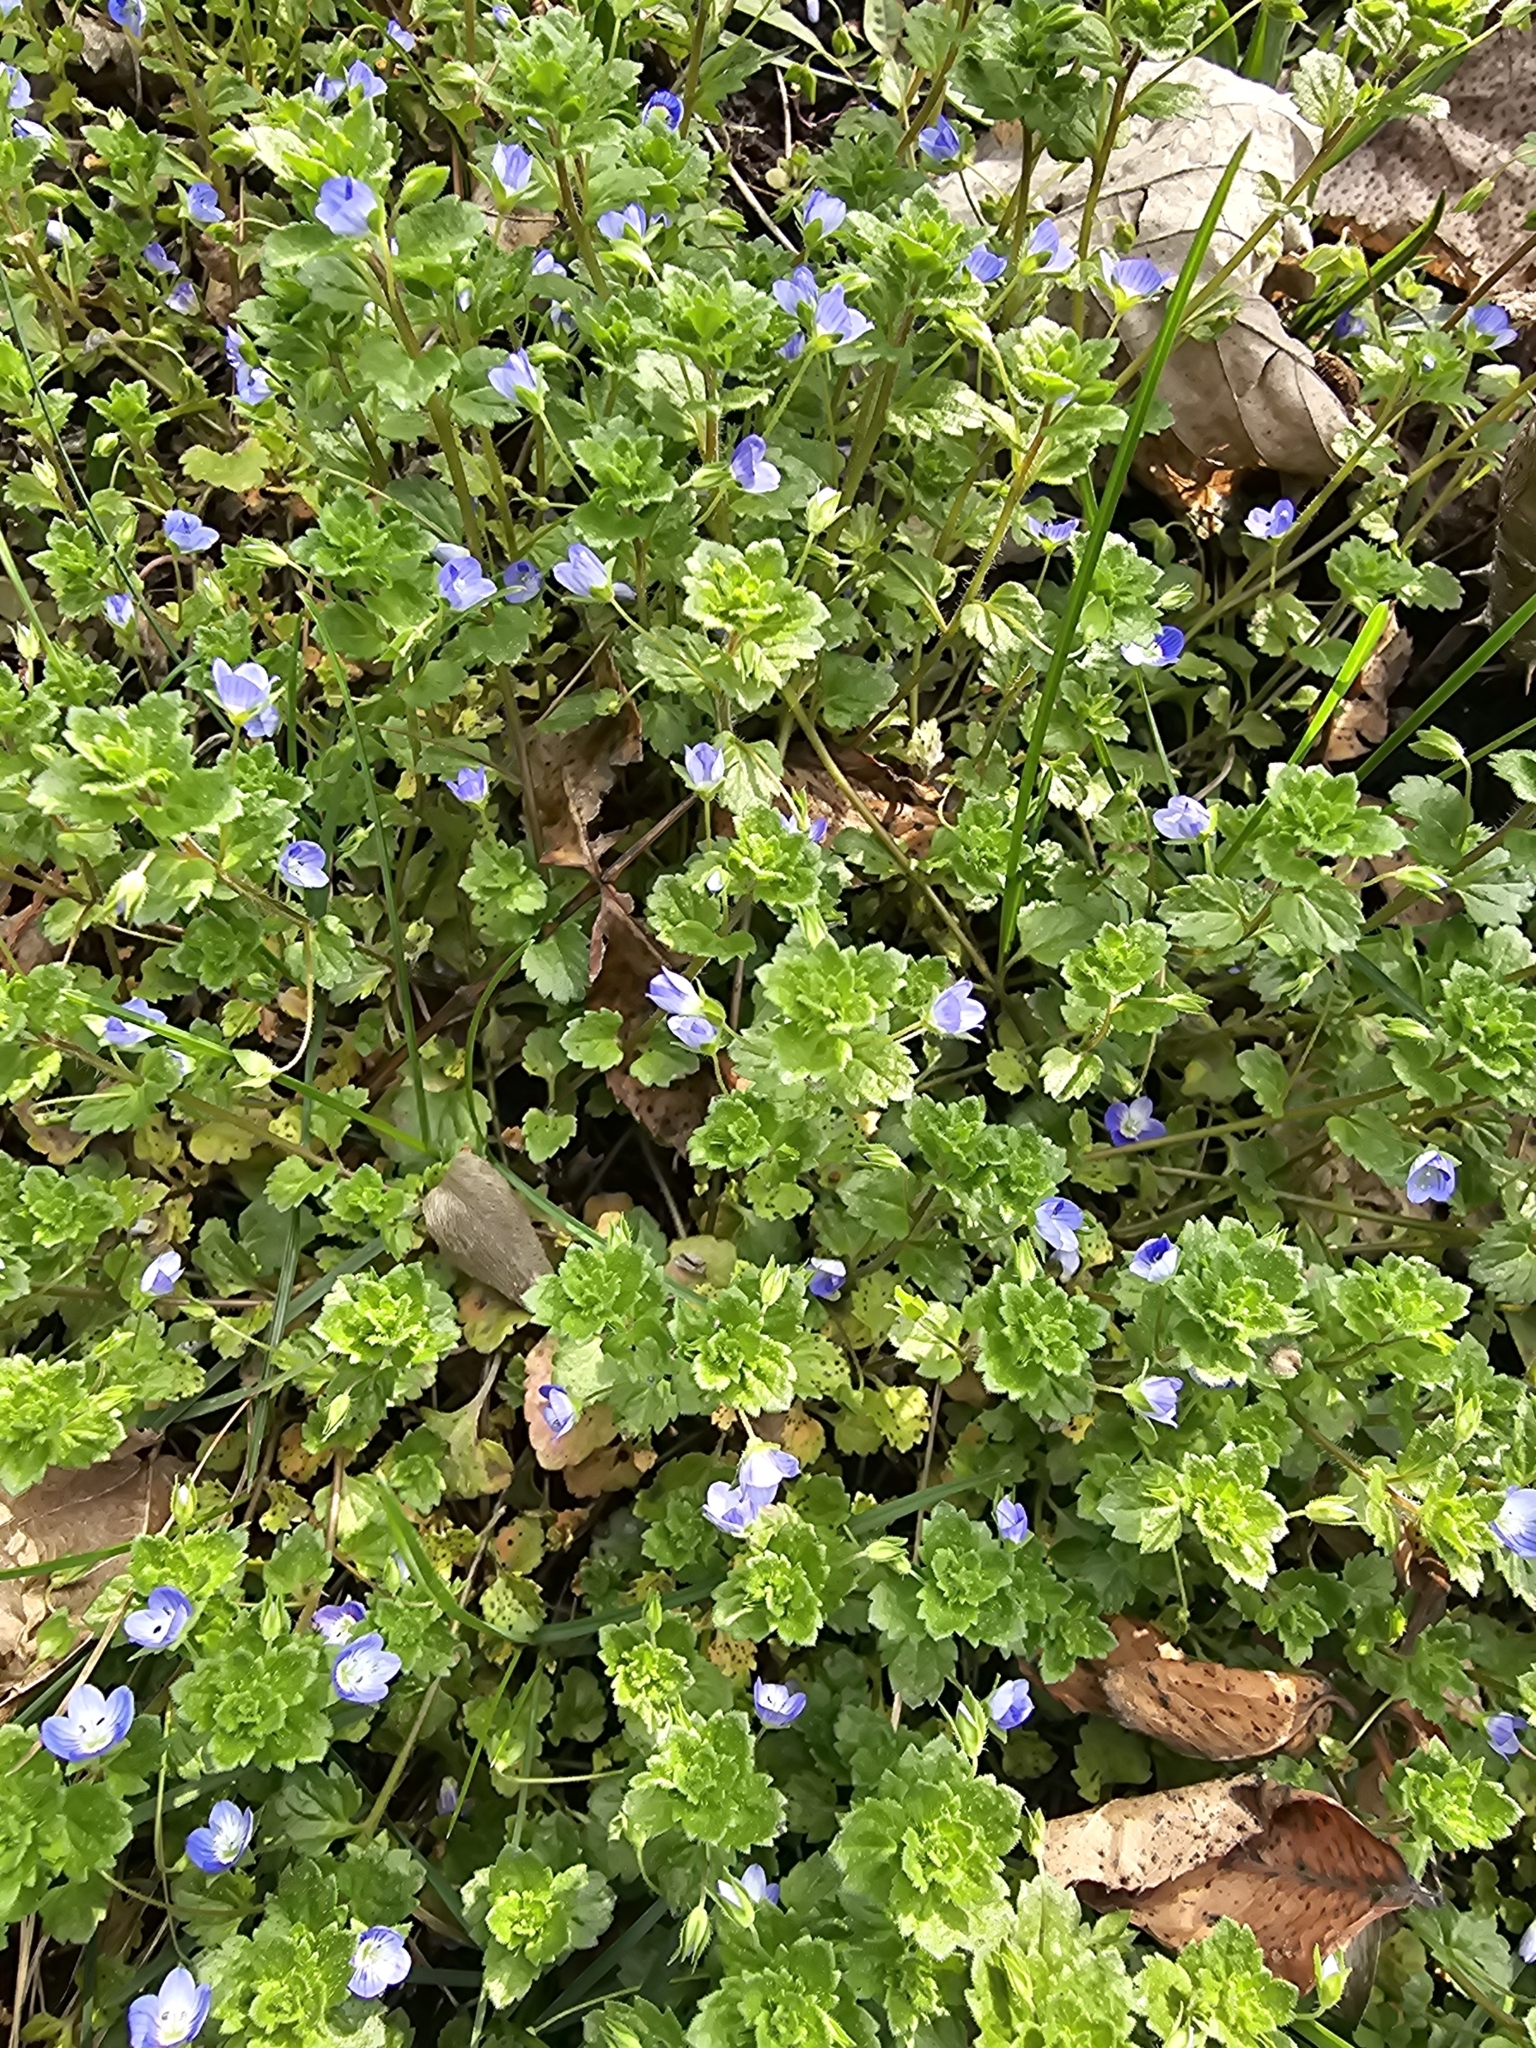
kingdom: Plantae
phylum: Tracheophyta
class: Magnoliopsida
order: Lamiales
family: Plantaginaceae
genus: Veronica
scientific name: Veronica persica
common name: Common field-speedwell
